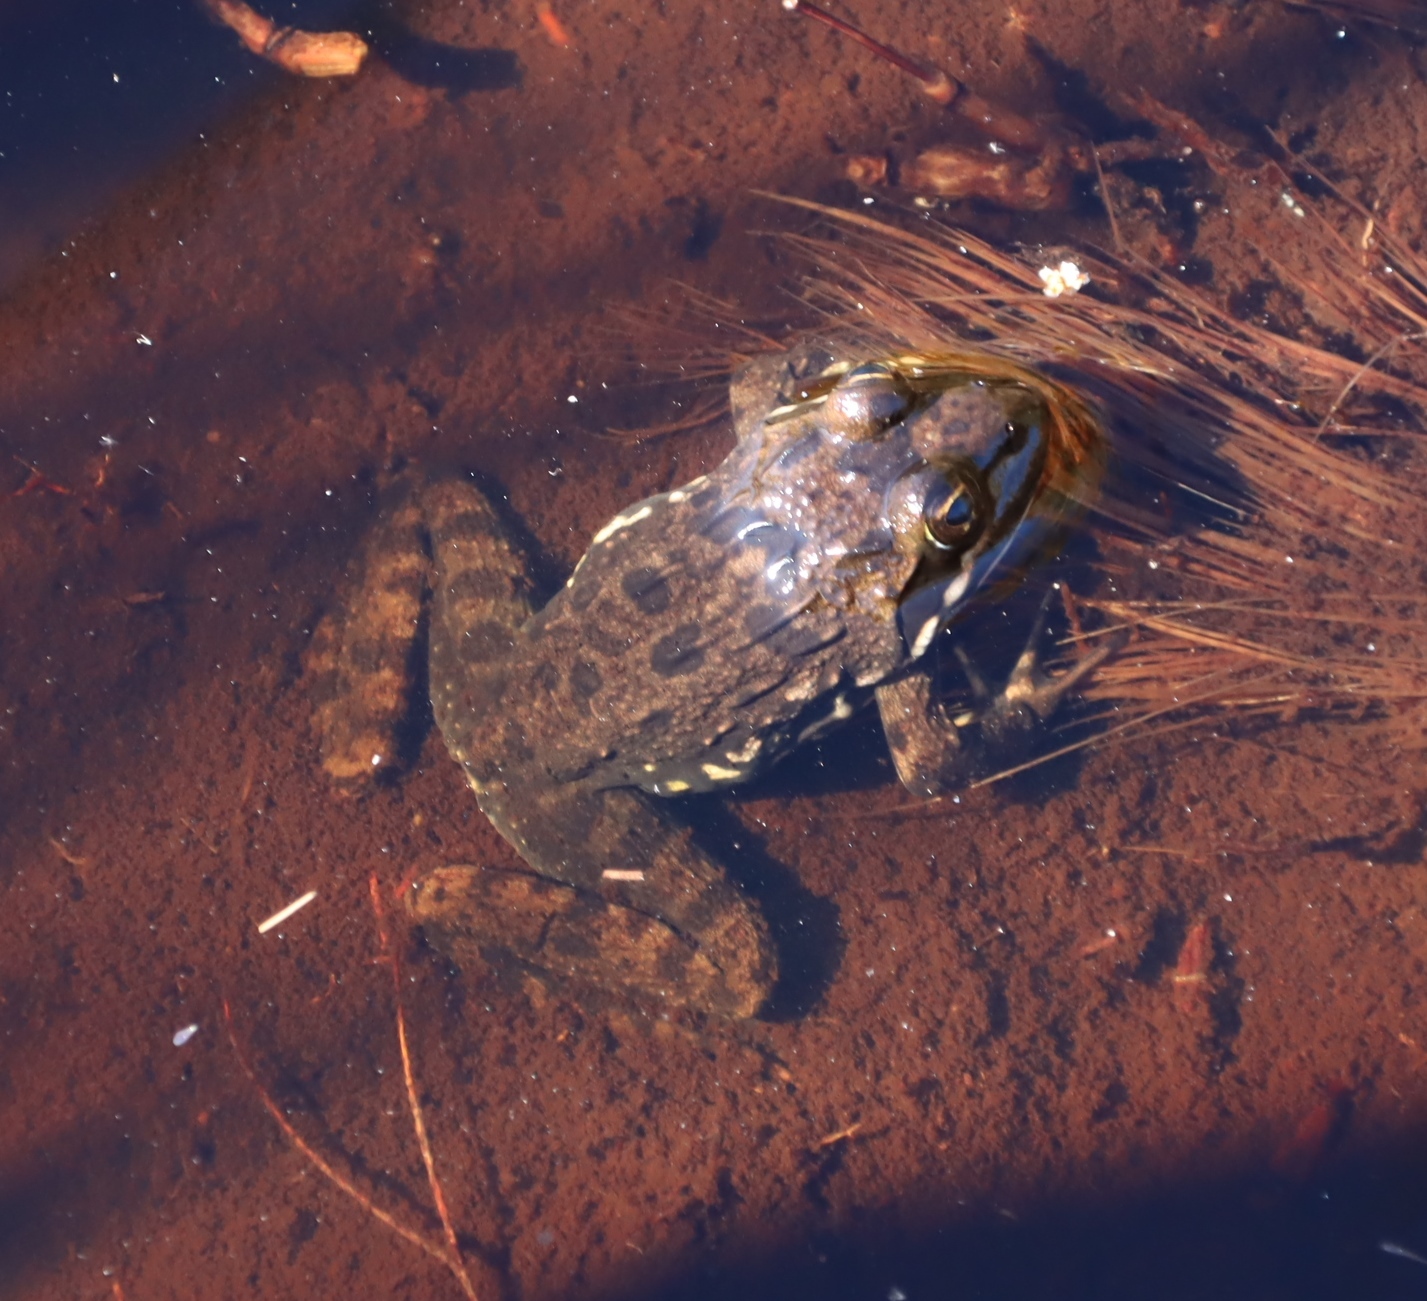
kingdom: Animalia
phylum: Chordata
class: Amphibia
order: Anura
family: Pyxicephalidae
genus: Amietia
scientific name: Amietia fuscigula
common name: Cape rana
